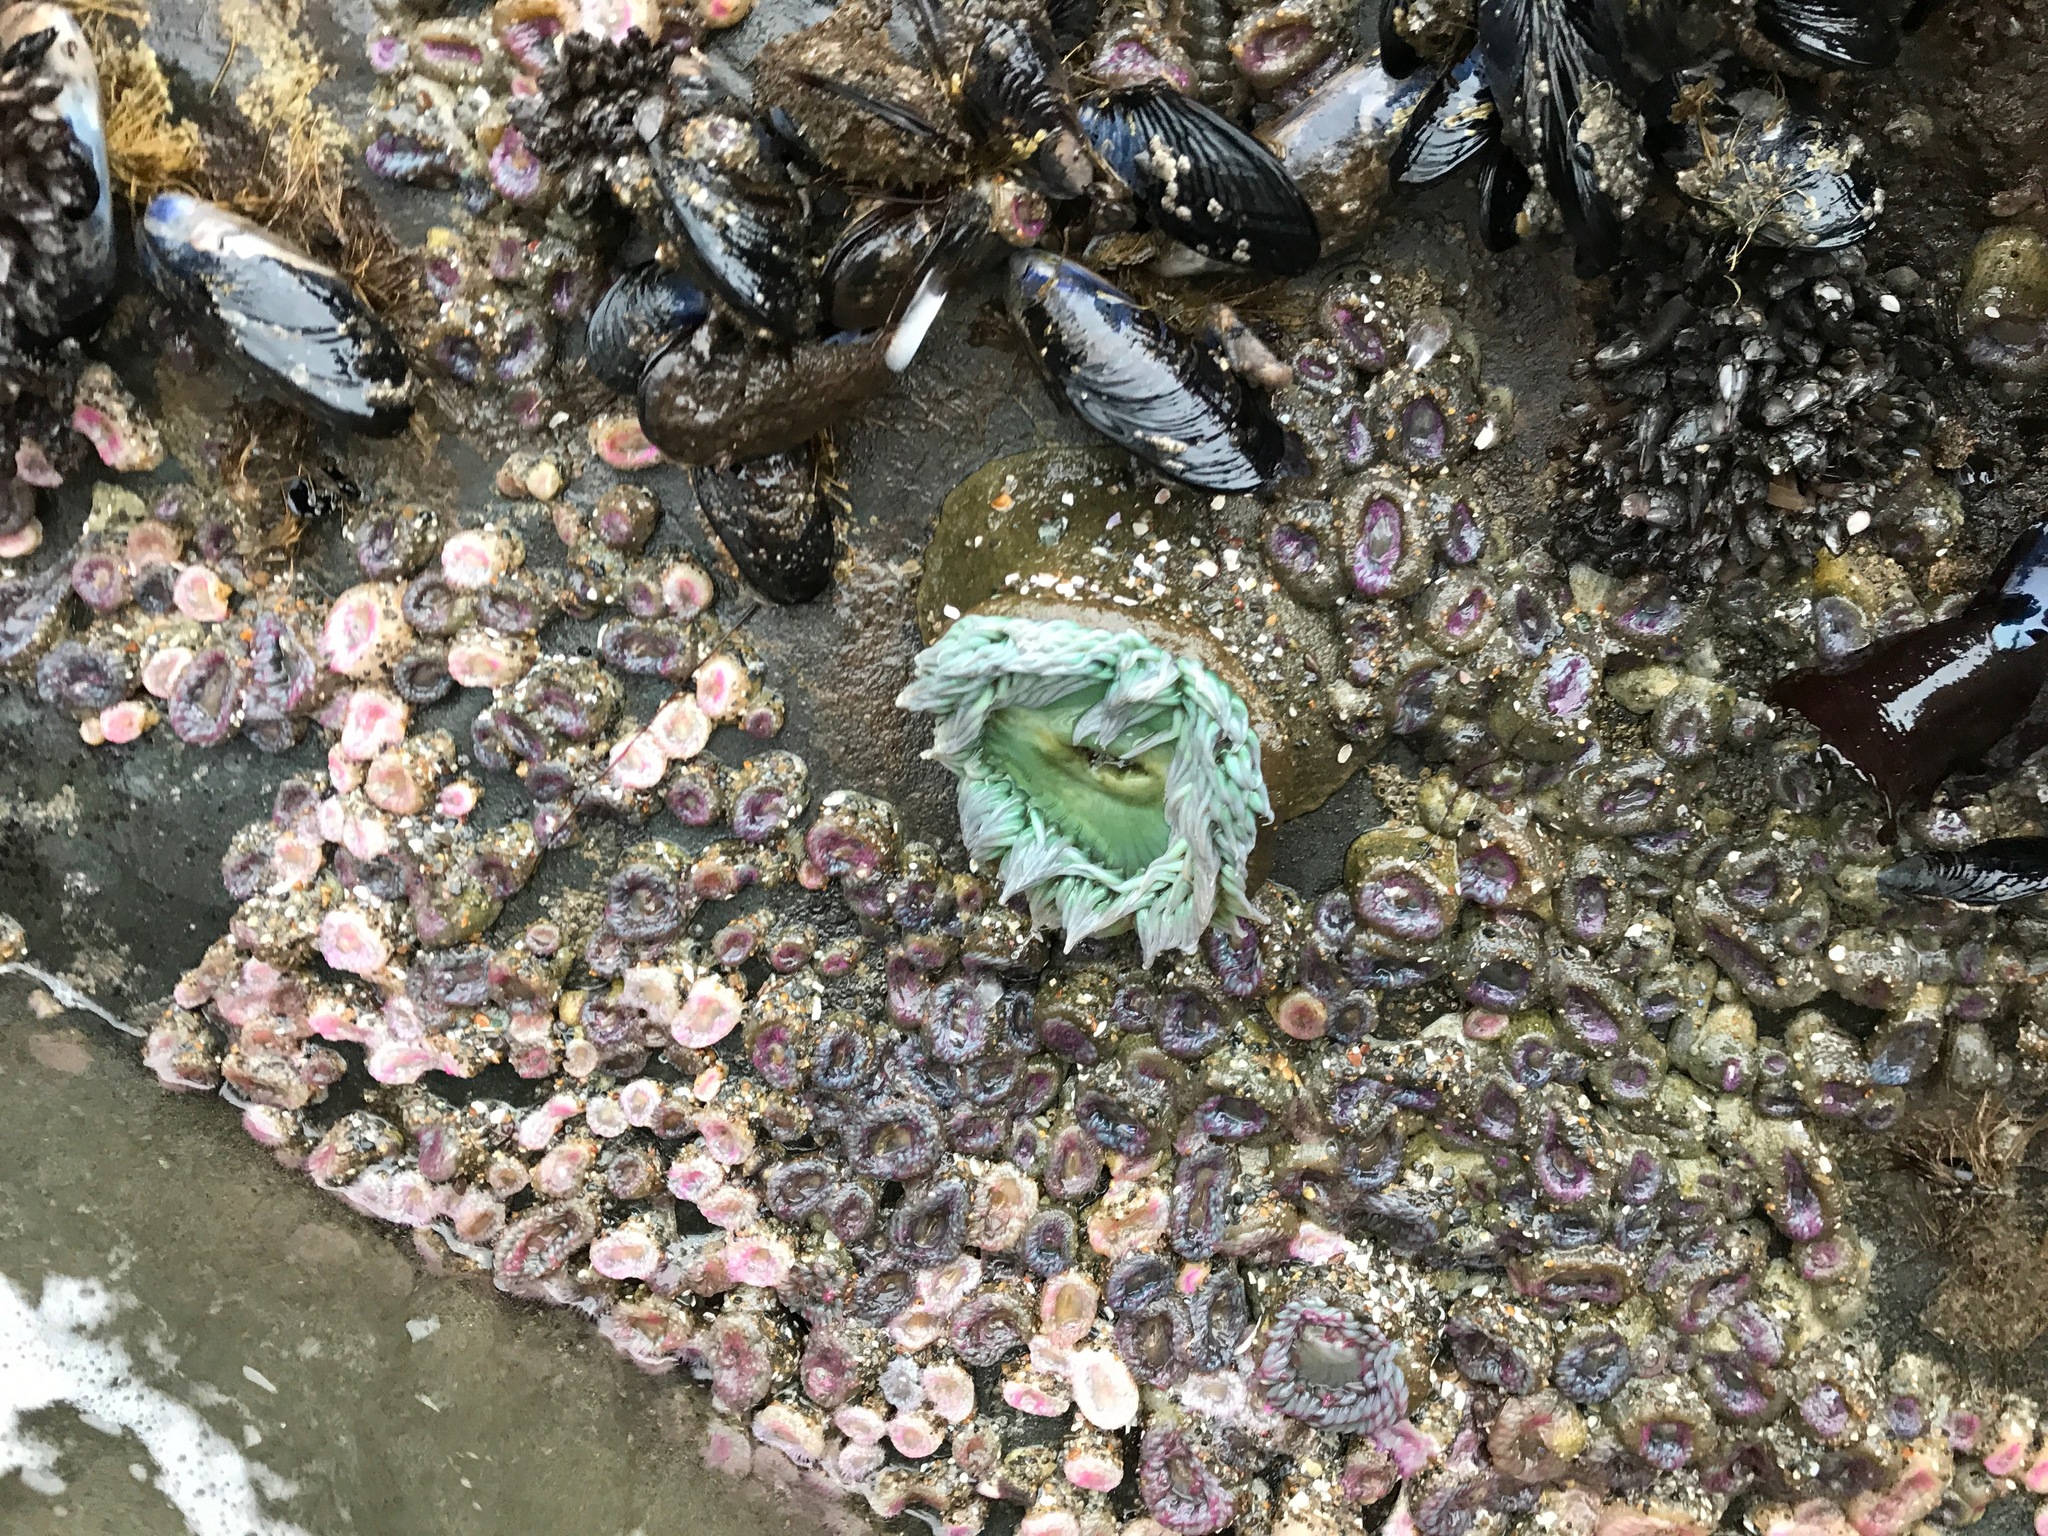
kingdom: Animalia
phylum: Cnidaria
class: Anthozoa
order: Actiniaria
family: Actiniidae
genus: Anthopleura
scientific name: Anthopleura xanthogrammica
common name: Giant green anemone
